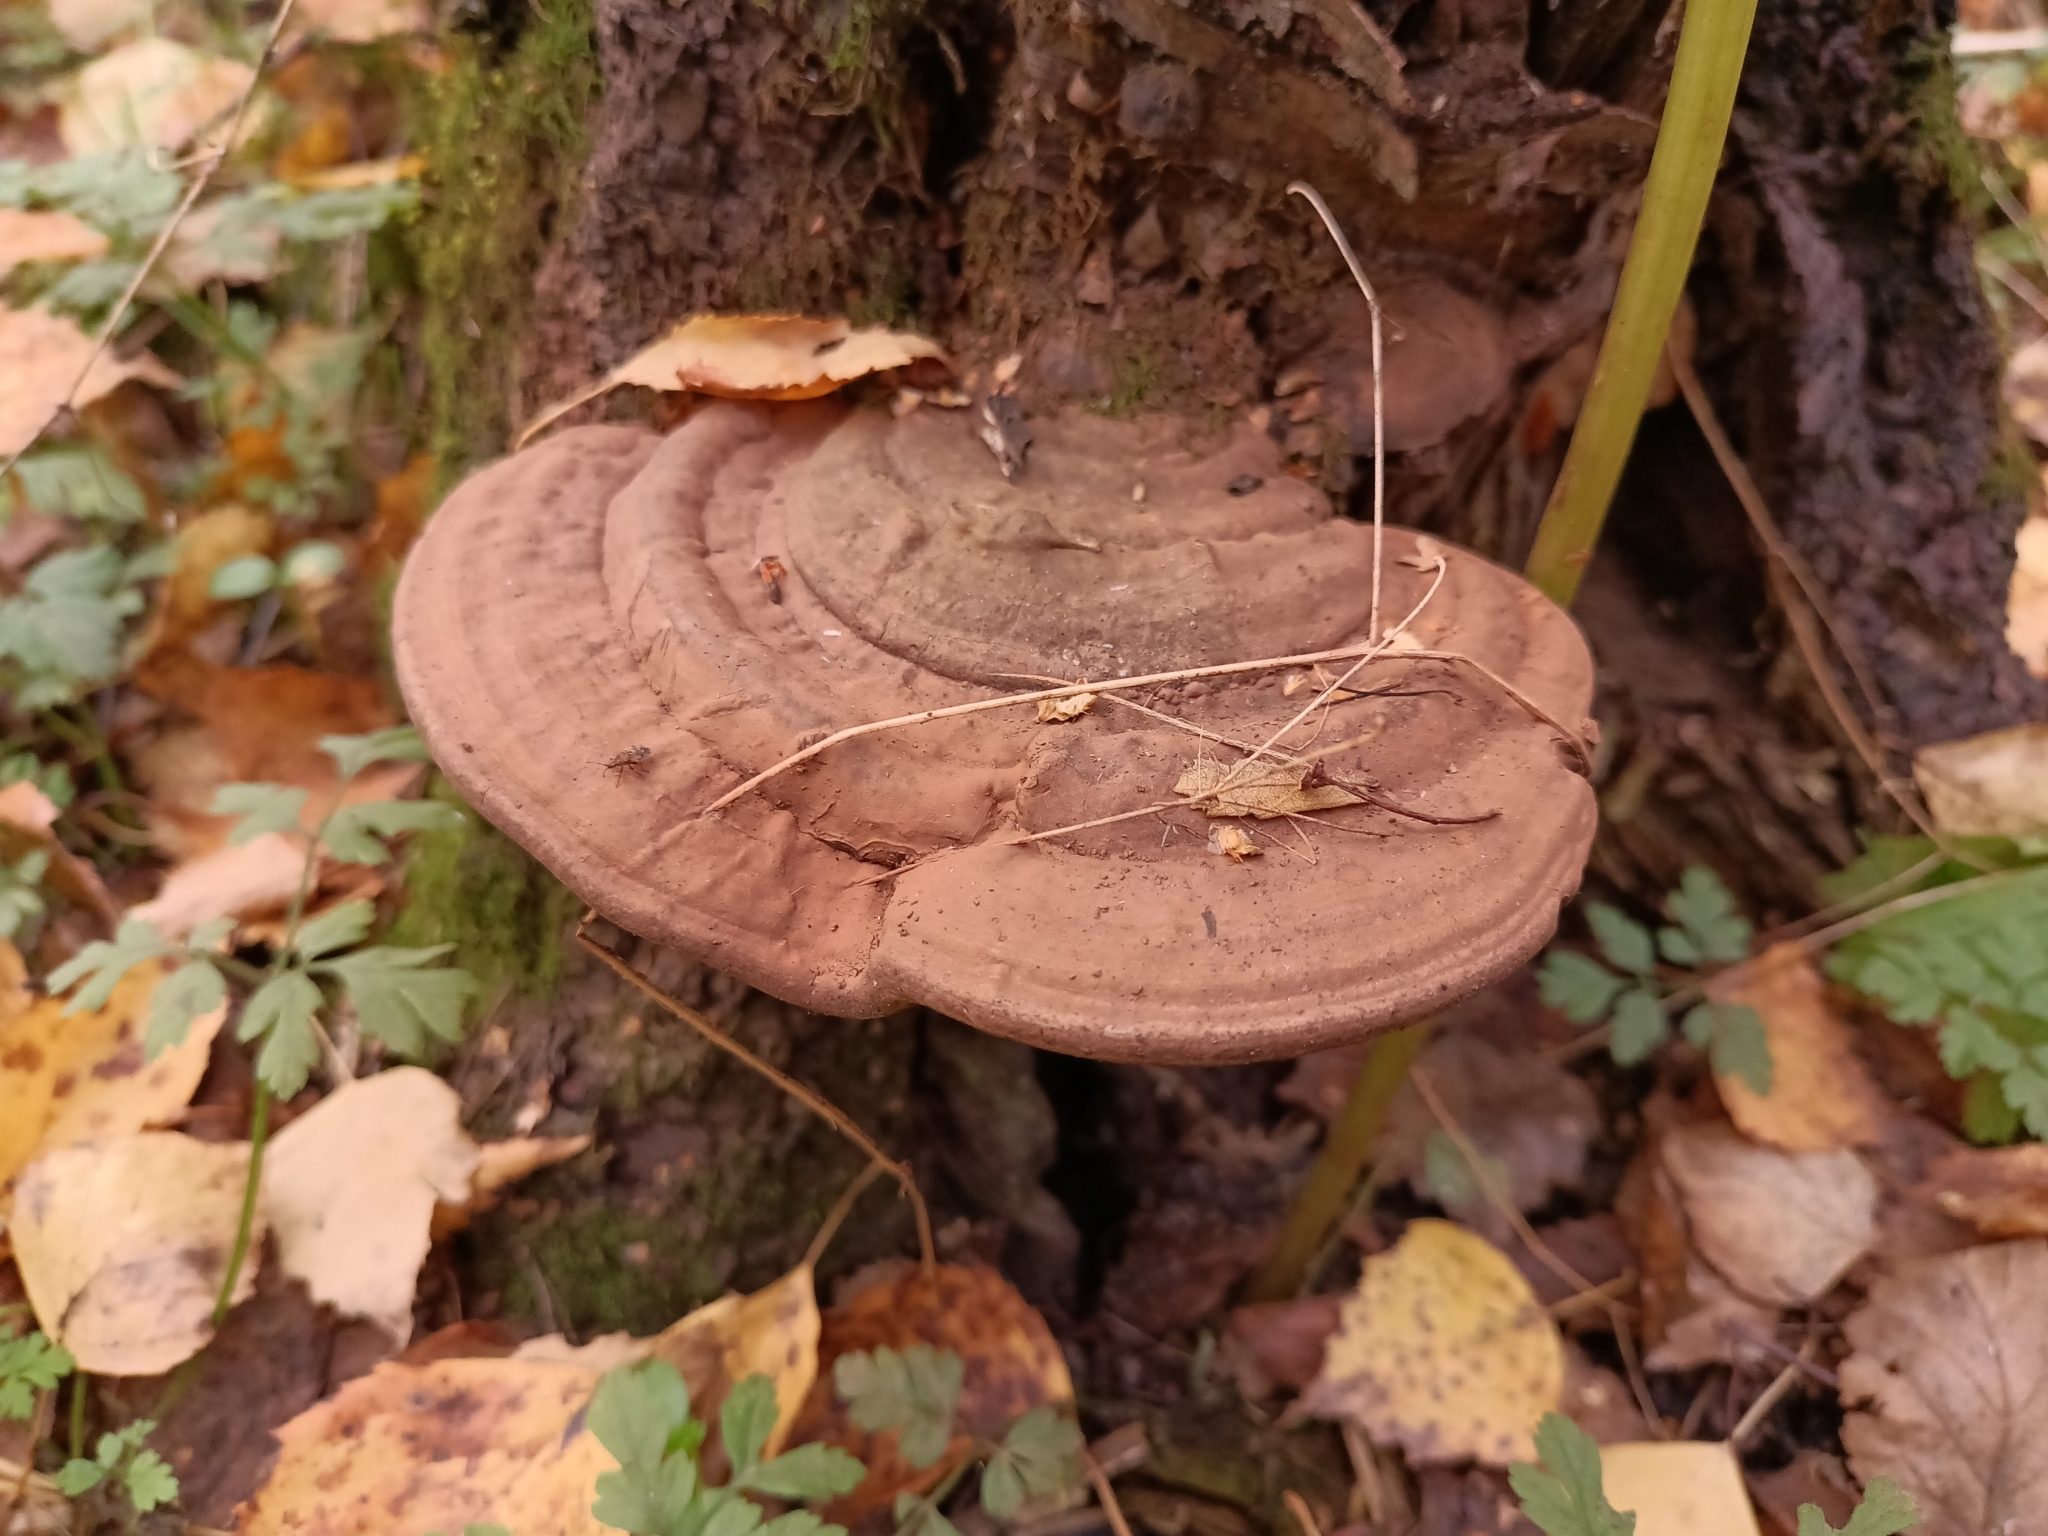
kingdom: Fungi
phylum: Basidiomycota
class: Agaricomycetes
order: Polyporales
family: Polyporaceae
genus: Ganoderma
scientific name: Ganoderma applanatum
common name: Artist's bracket
